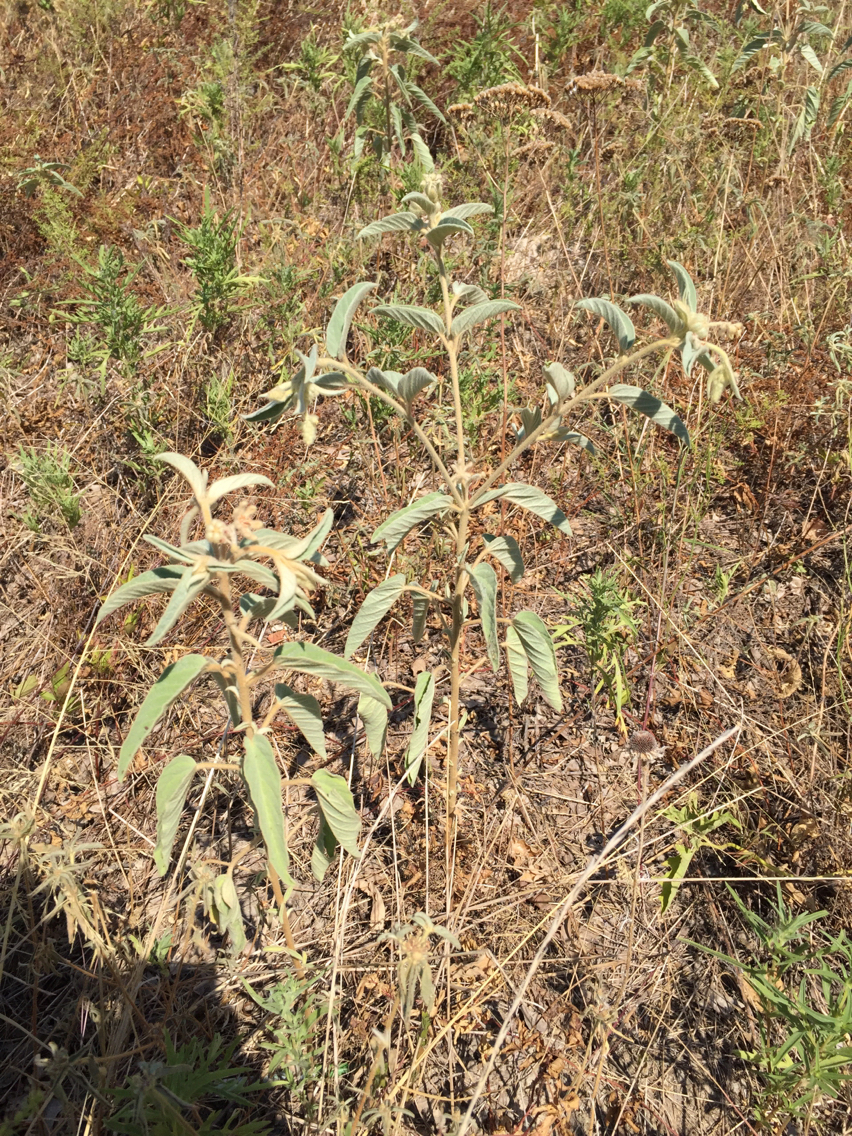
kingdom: Plantae
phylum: Tracheophyta
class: Magnoliopsida
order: Malpighiales
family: Euphorbiaceae
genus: Croton
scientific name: Croton lindheimeri
